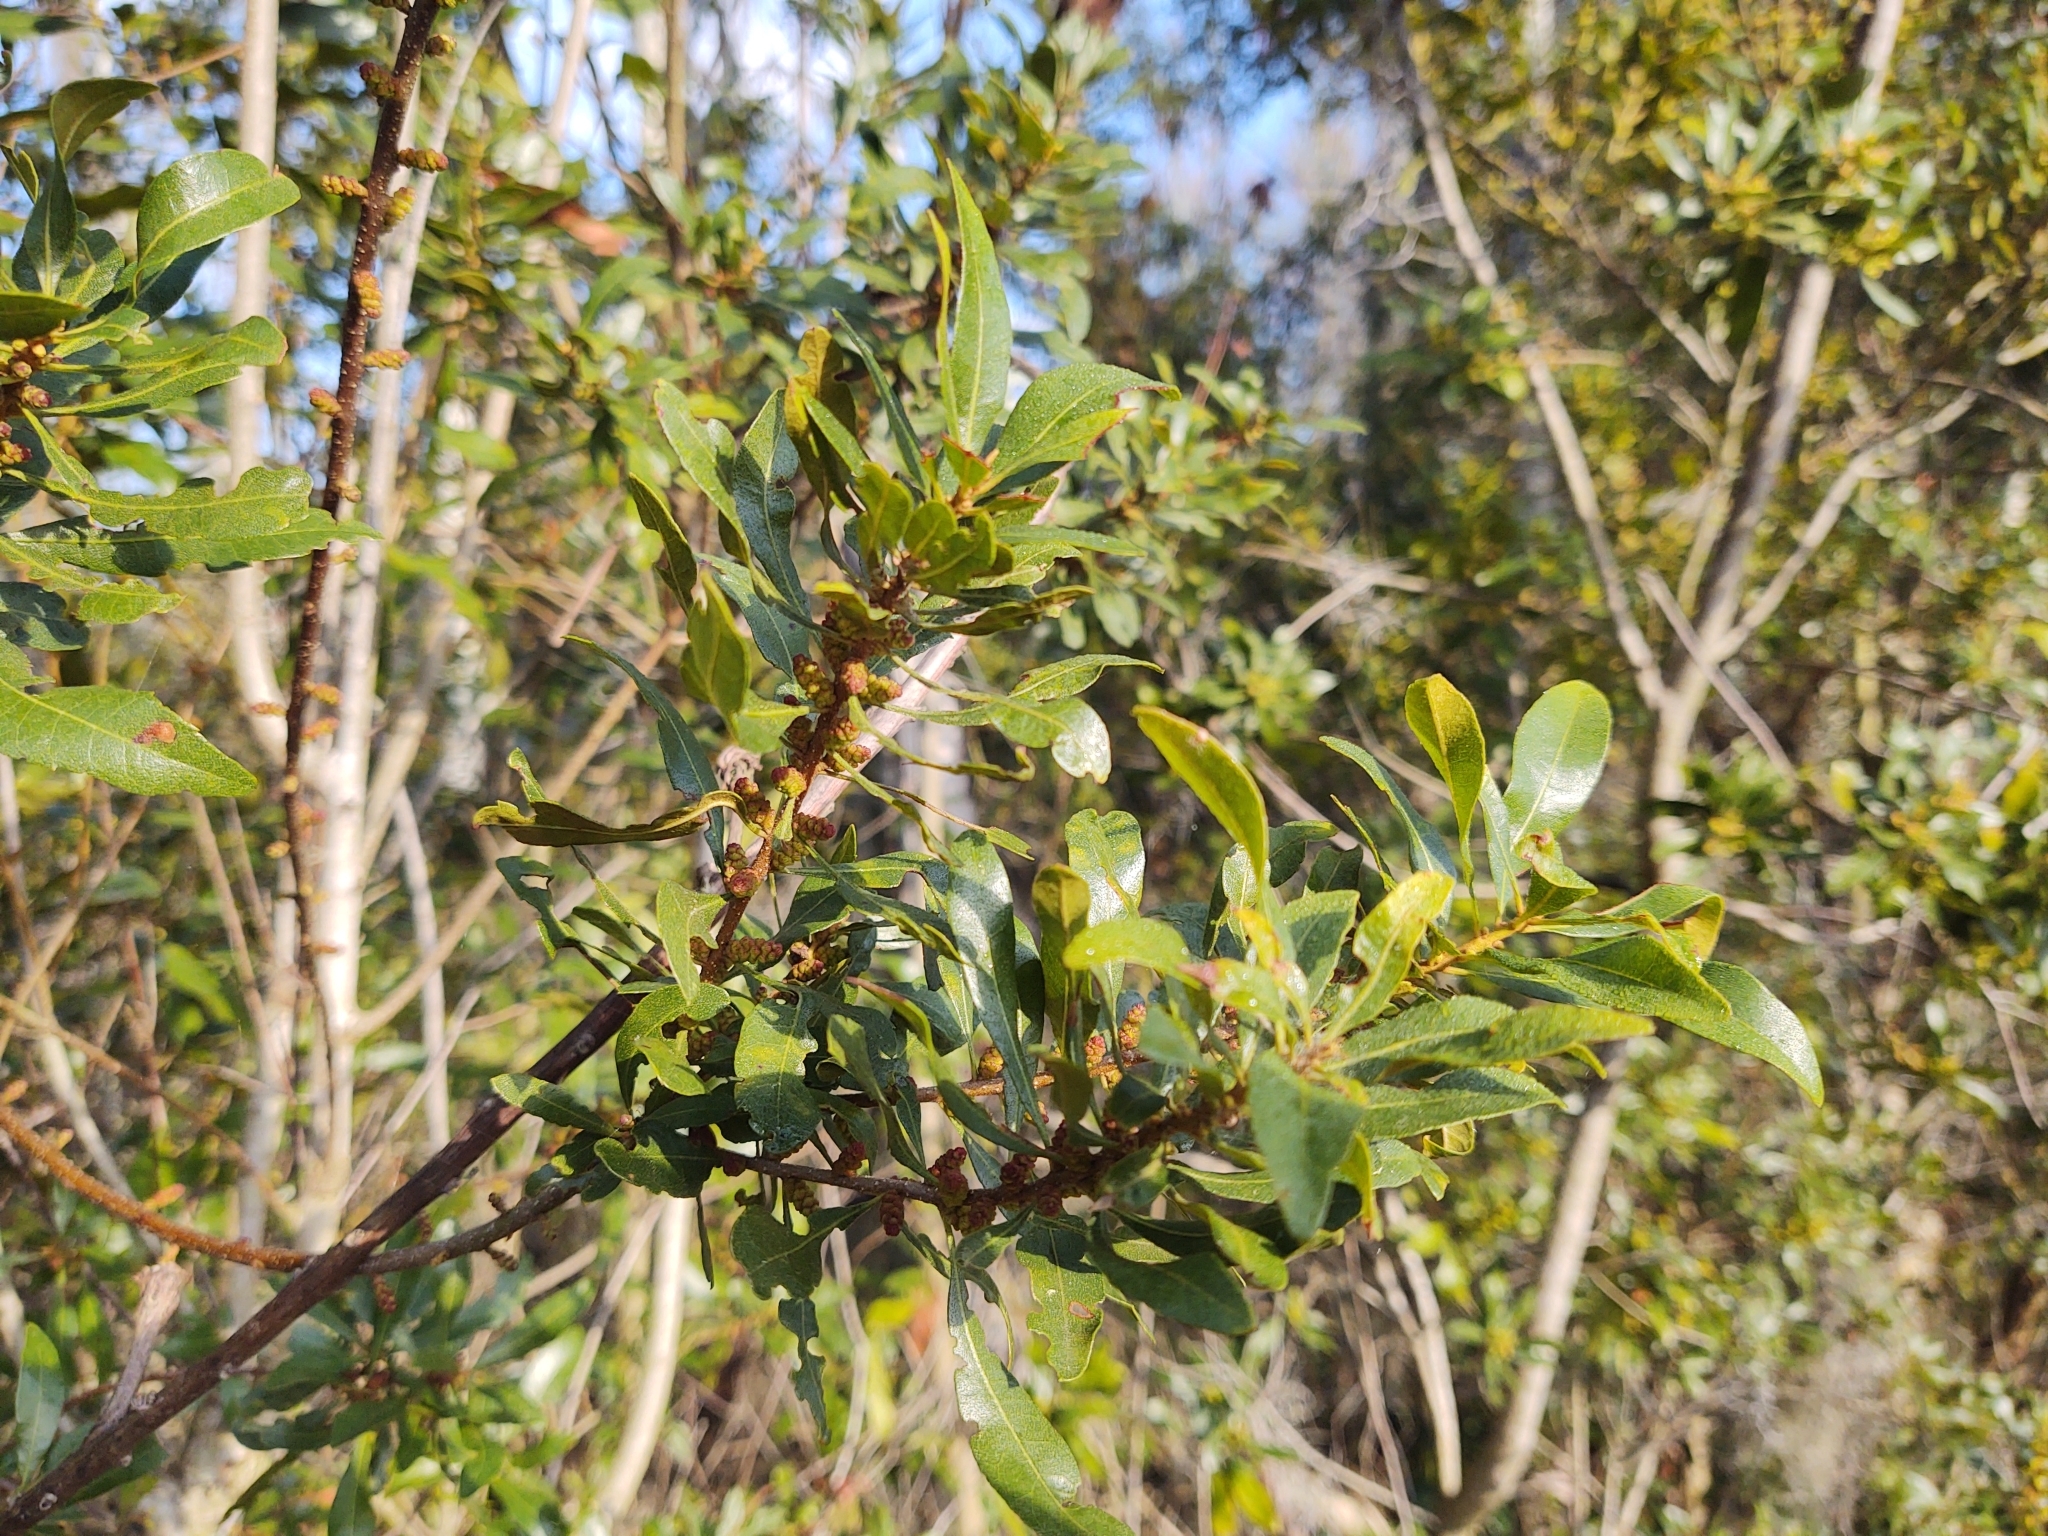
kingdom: Plantae
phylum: Tracheophyta
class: Magnoliopsida
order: Fagales
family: Myricaceae
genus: Morella
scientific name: Morella cerifera
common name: Wax myrtle
